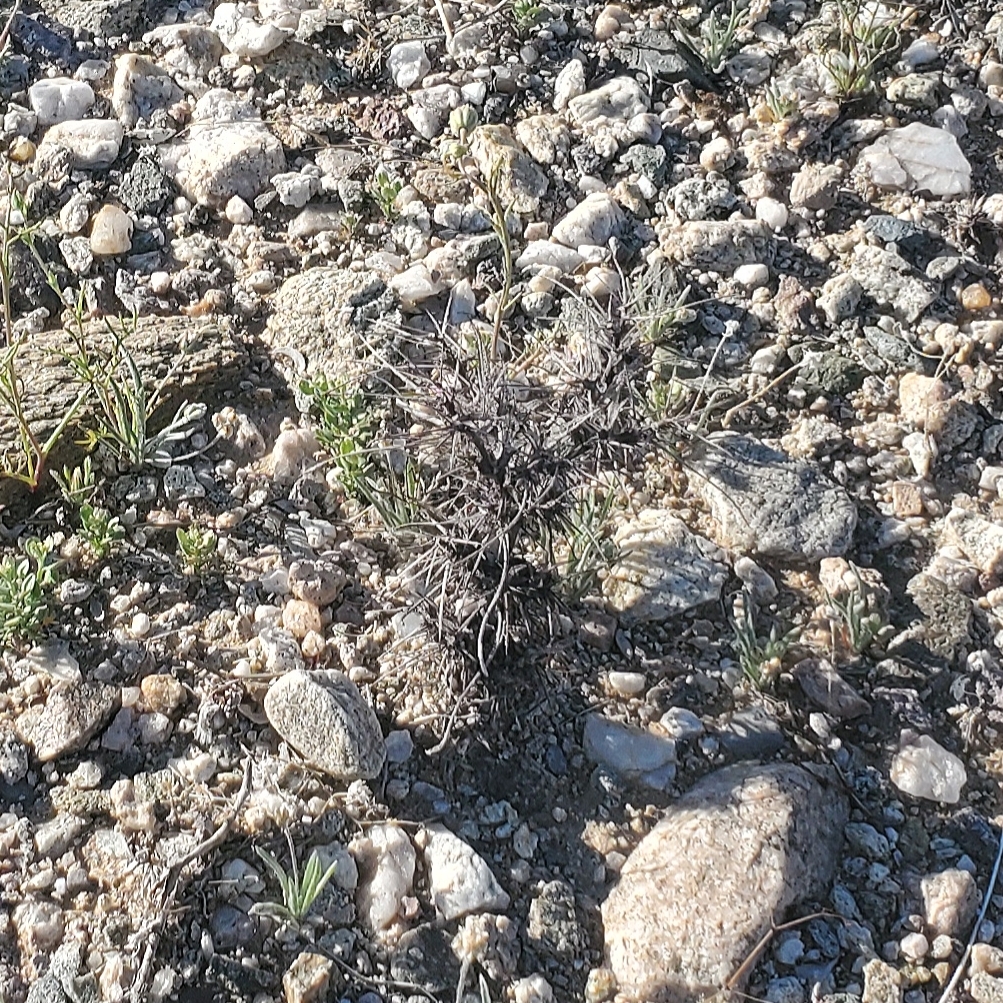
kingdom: Plantae
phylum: Tracheophyta
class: Magnoliopsida
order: Caryophyllales
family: Polygonaceae
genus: Chorizanthe
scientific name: Chorizanthe rigida
